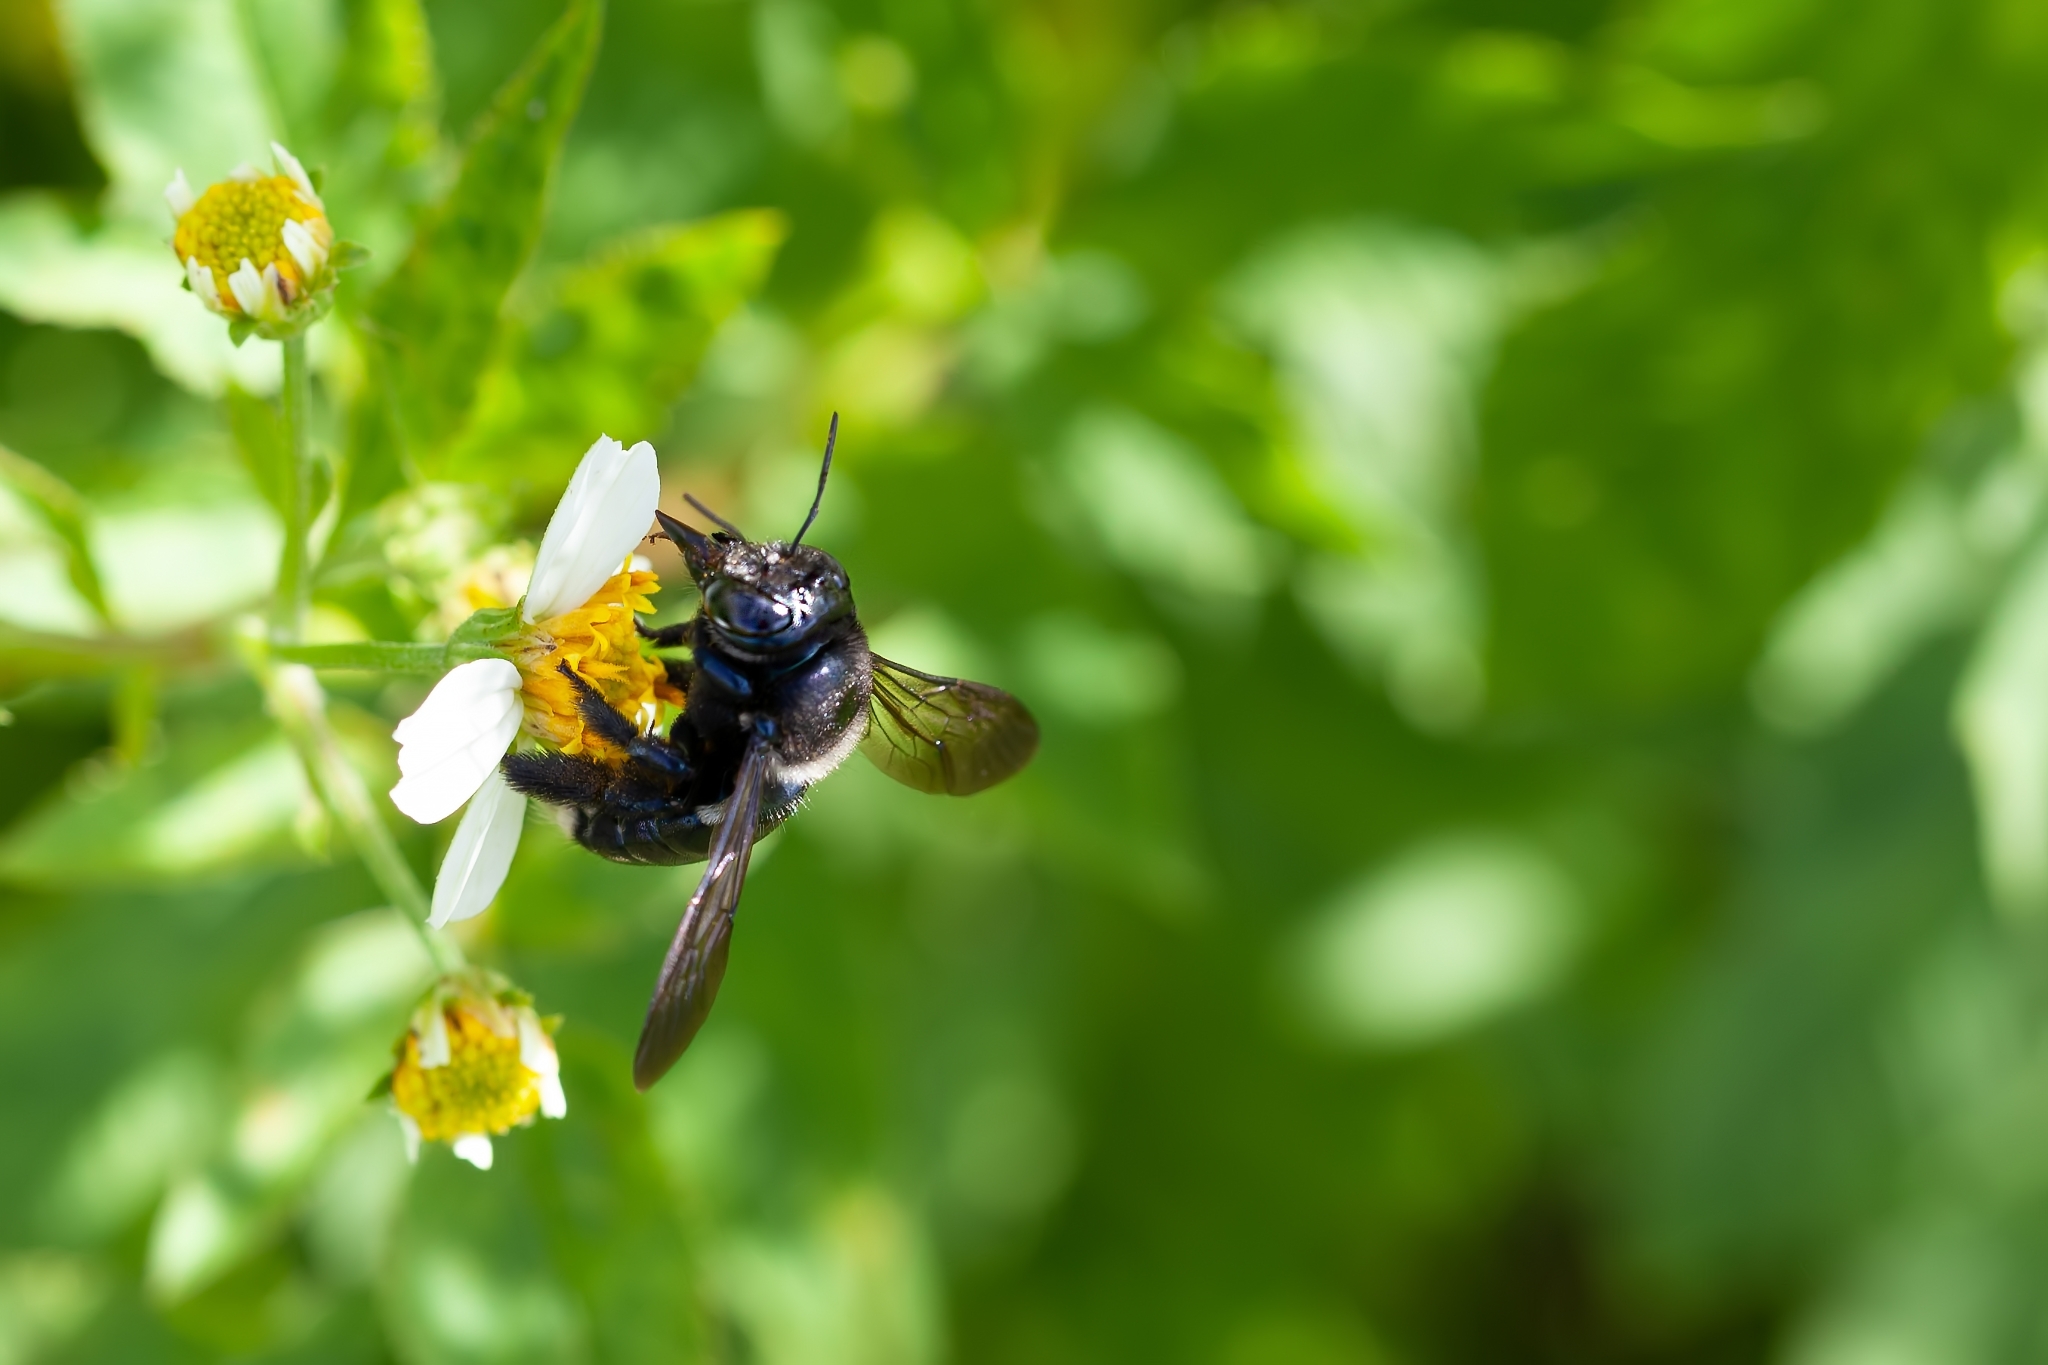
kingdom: Animalia
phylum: Arthropoda
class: Insecta
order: Hymenoptera
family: Apidae
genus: Xylocopa
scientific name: Xylocopa micans
